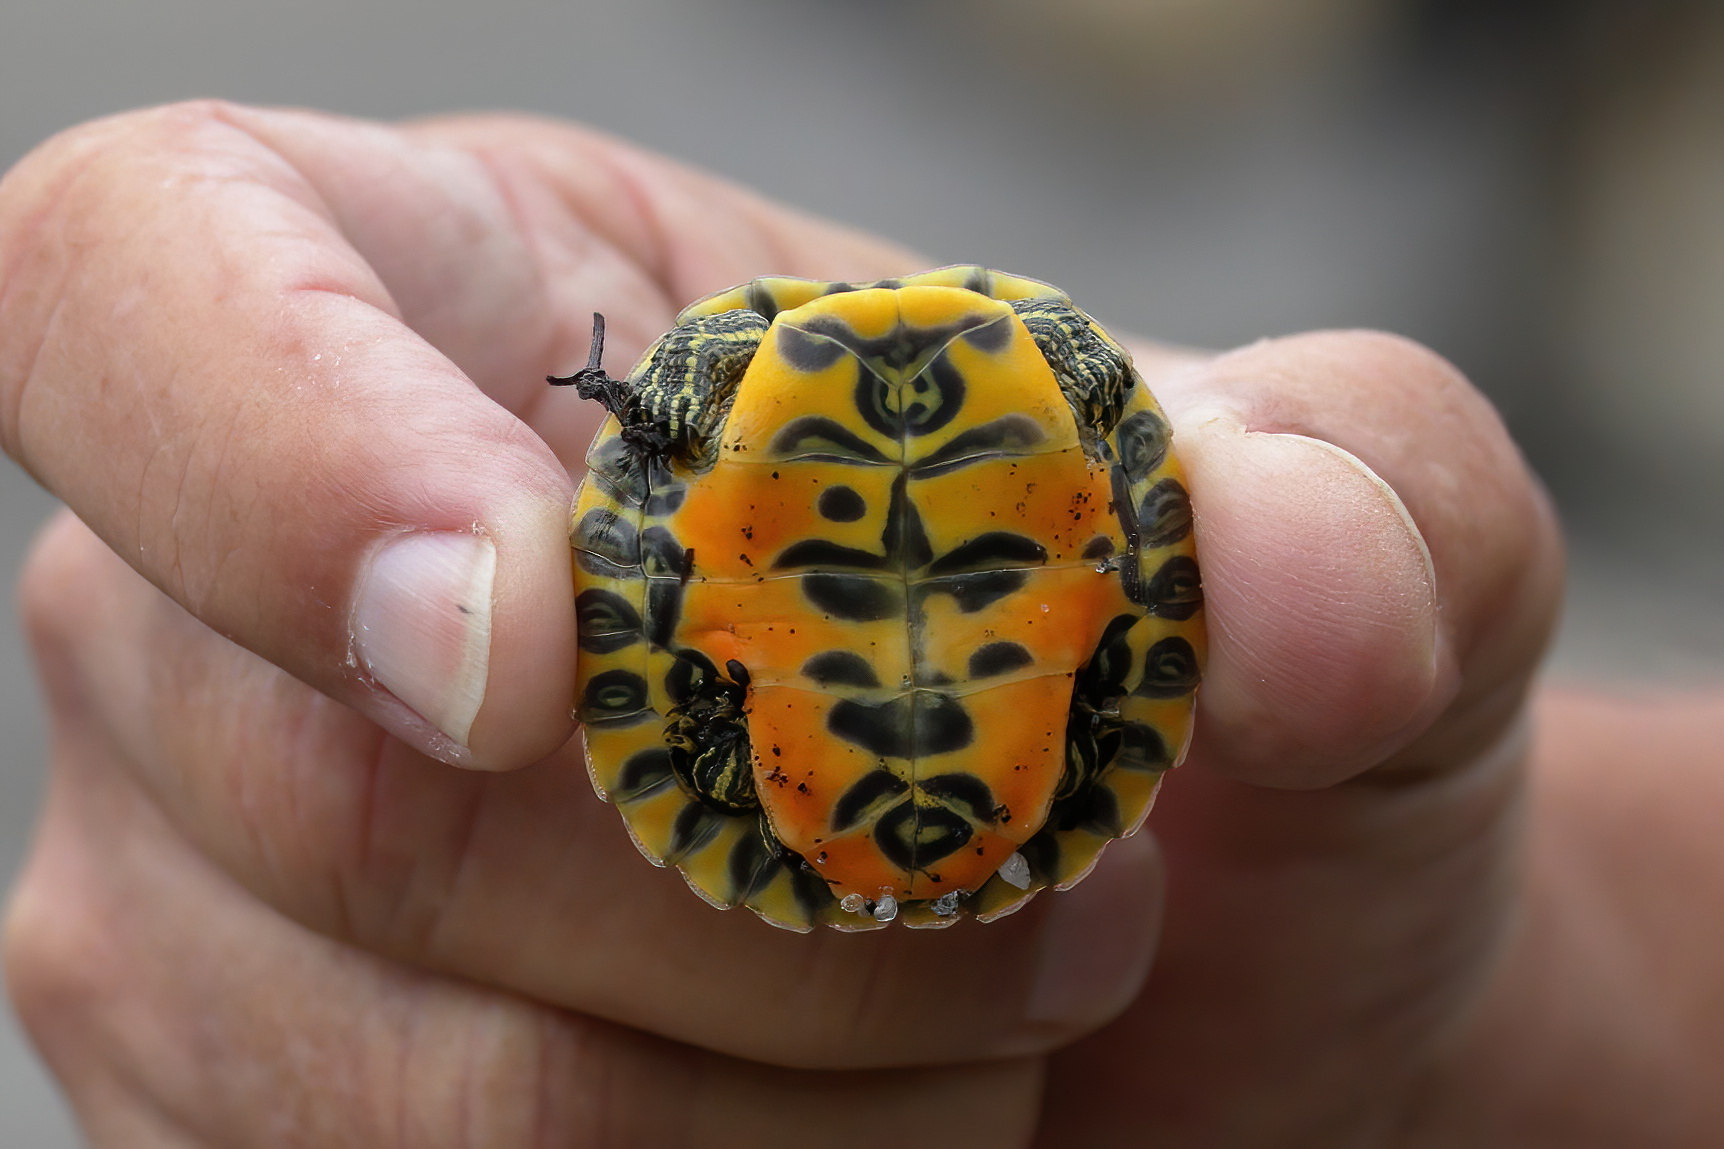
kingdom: Animalia
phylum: Chordata
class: Testudines
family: Emydidae
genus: Pseudemys
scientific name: Pseudemys alabamensis
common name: Alabama red-bellied turtle
